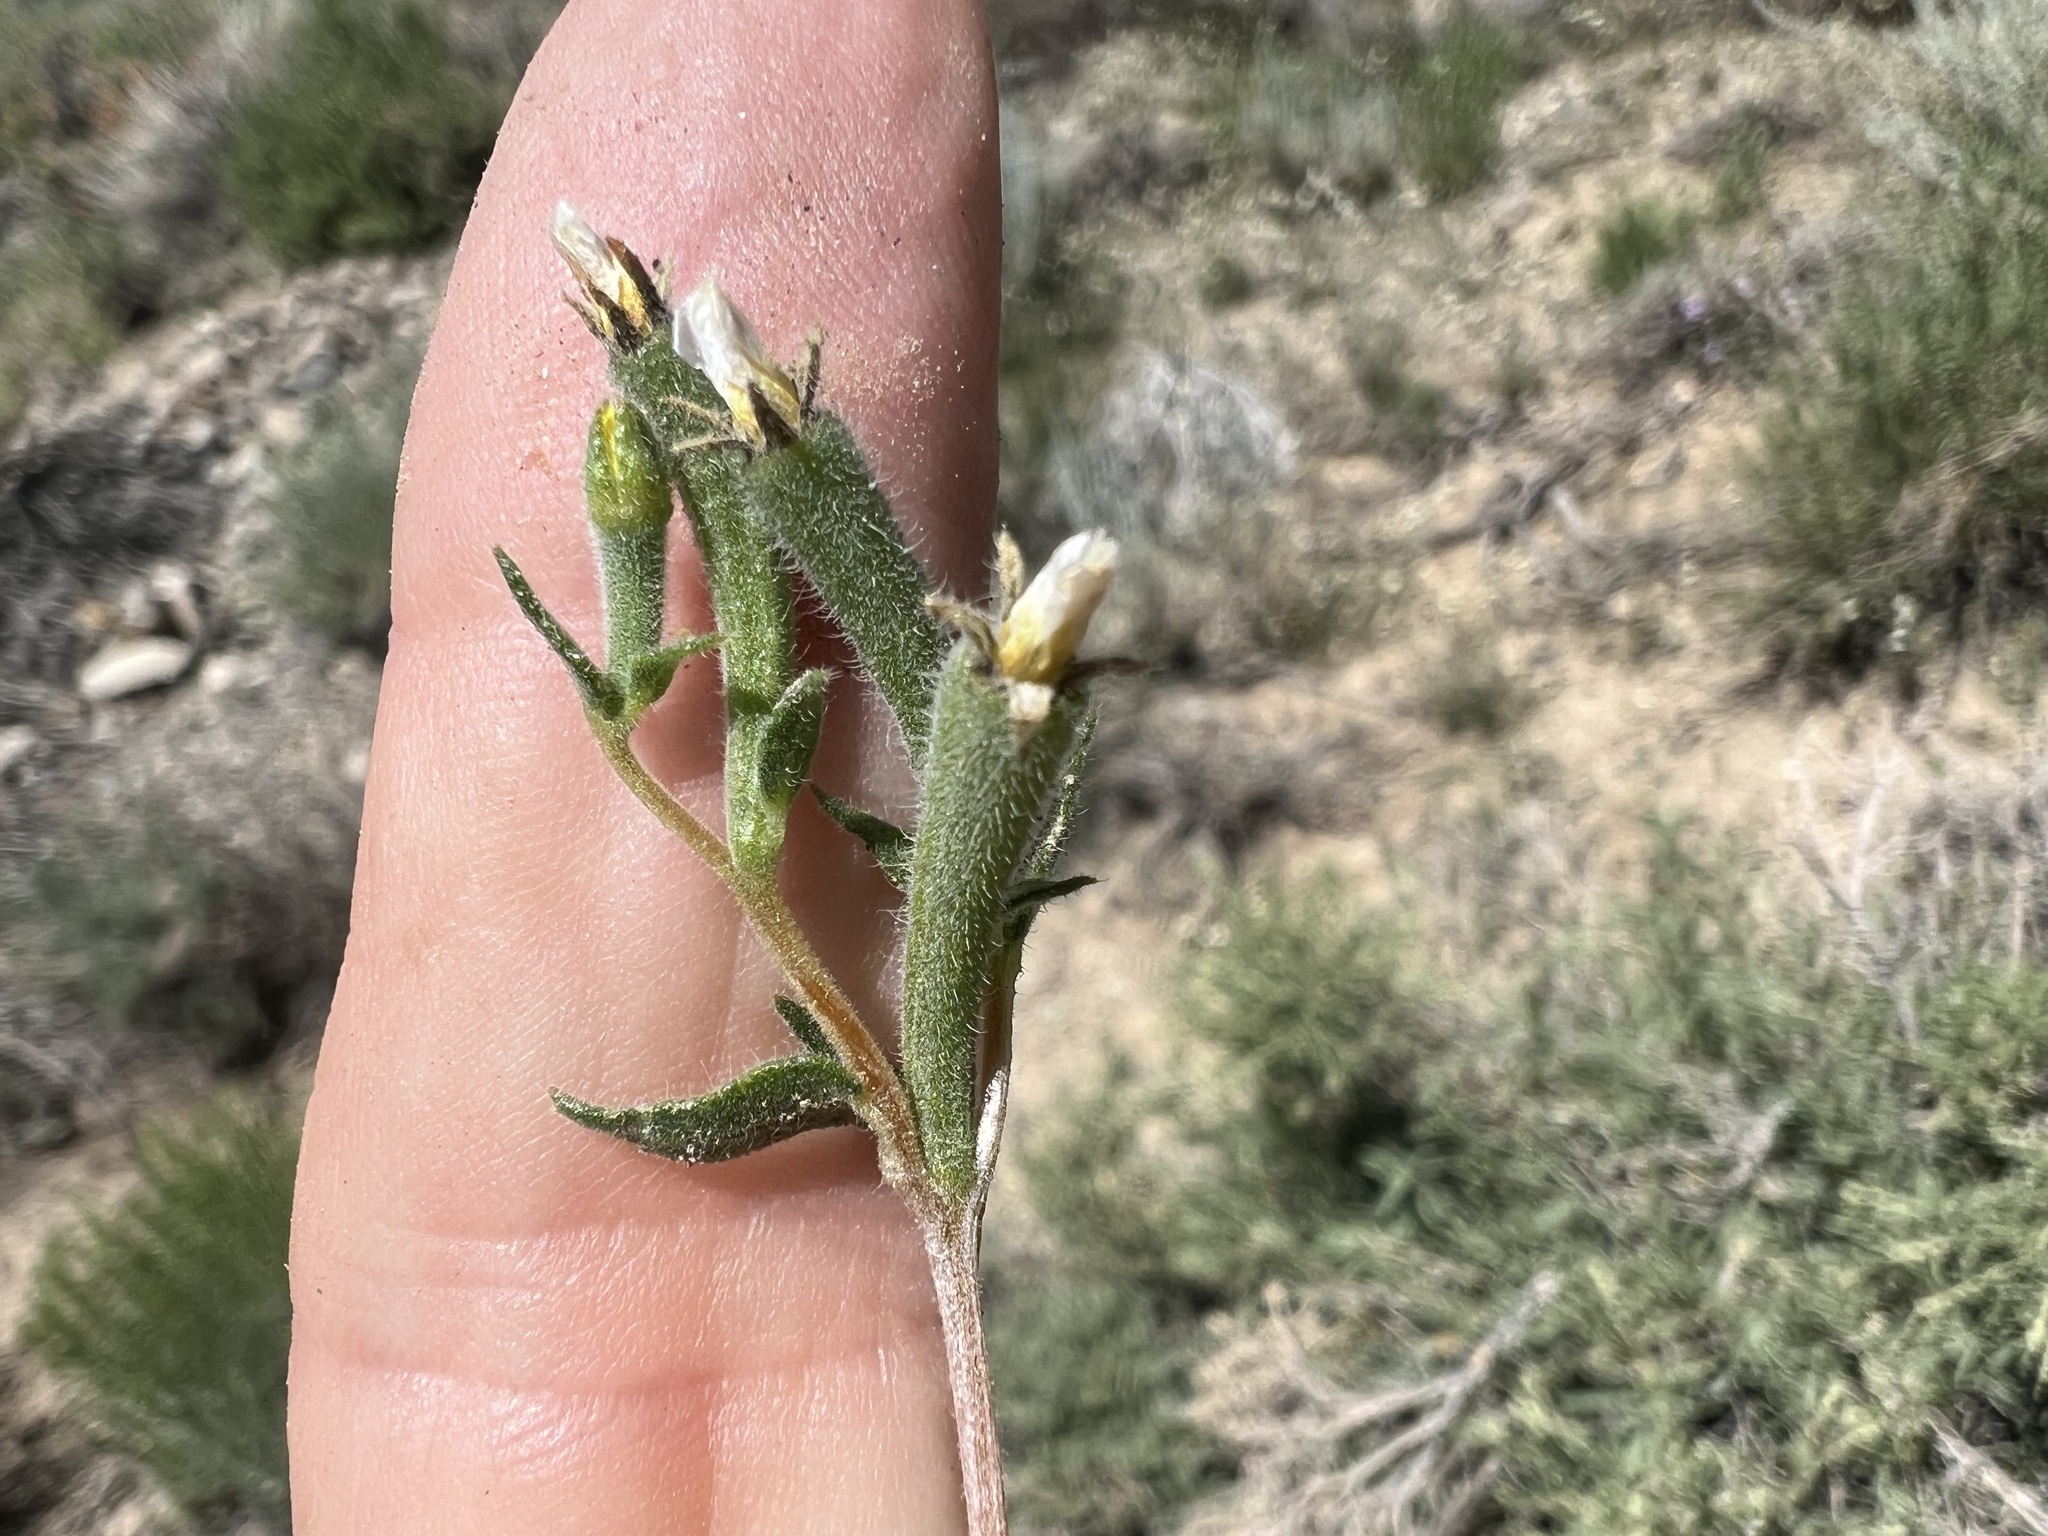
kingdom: Plantae
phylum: Tracheophyta
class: Magnoliopsida
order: Cornales
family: Loasaceae
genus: Mentzelia
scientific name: Mentzelia albicaulis
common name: White-stem blazingstar
